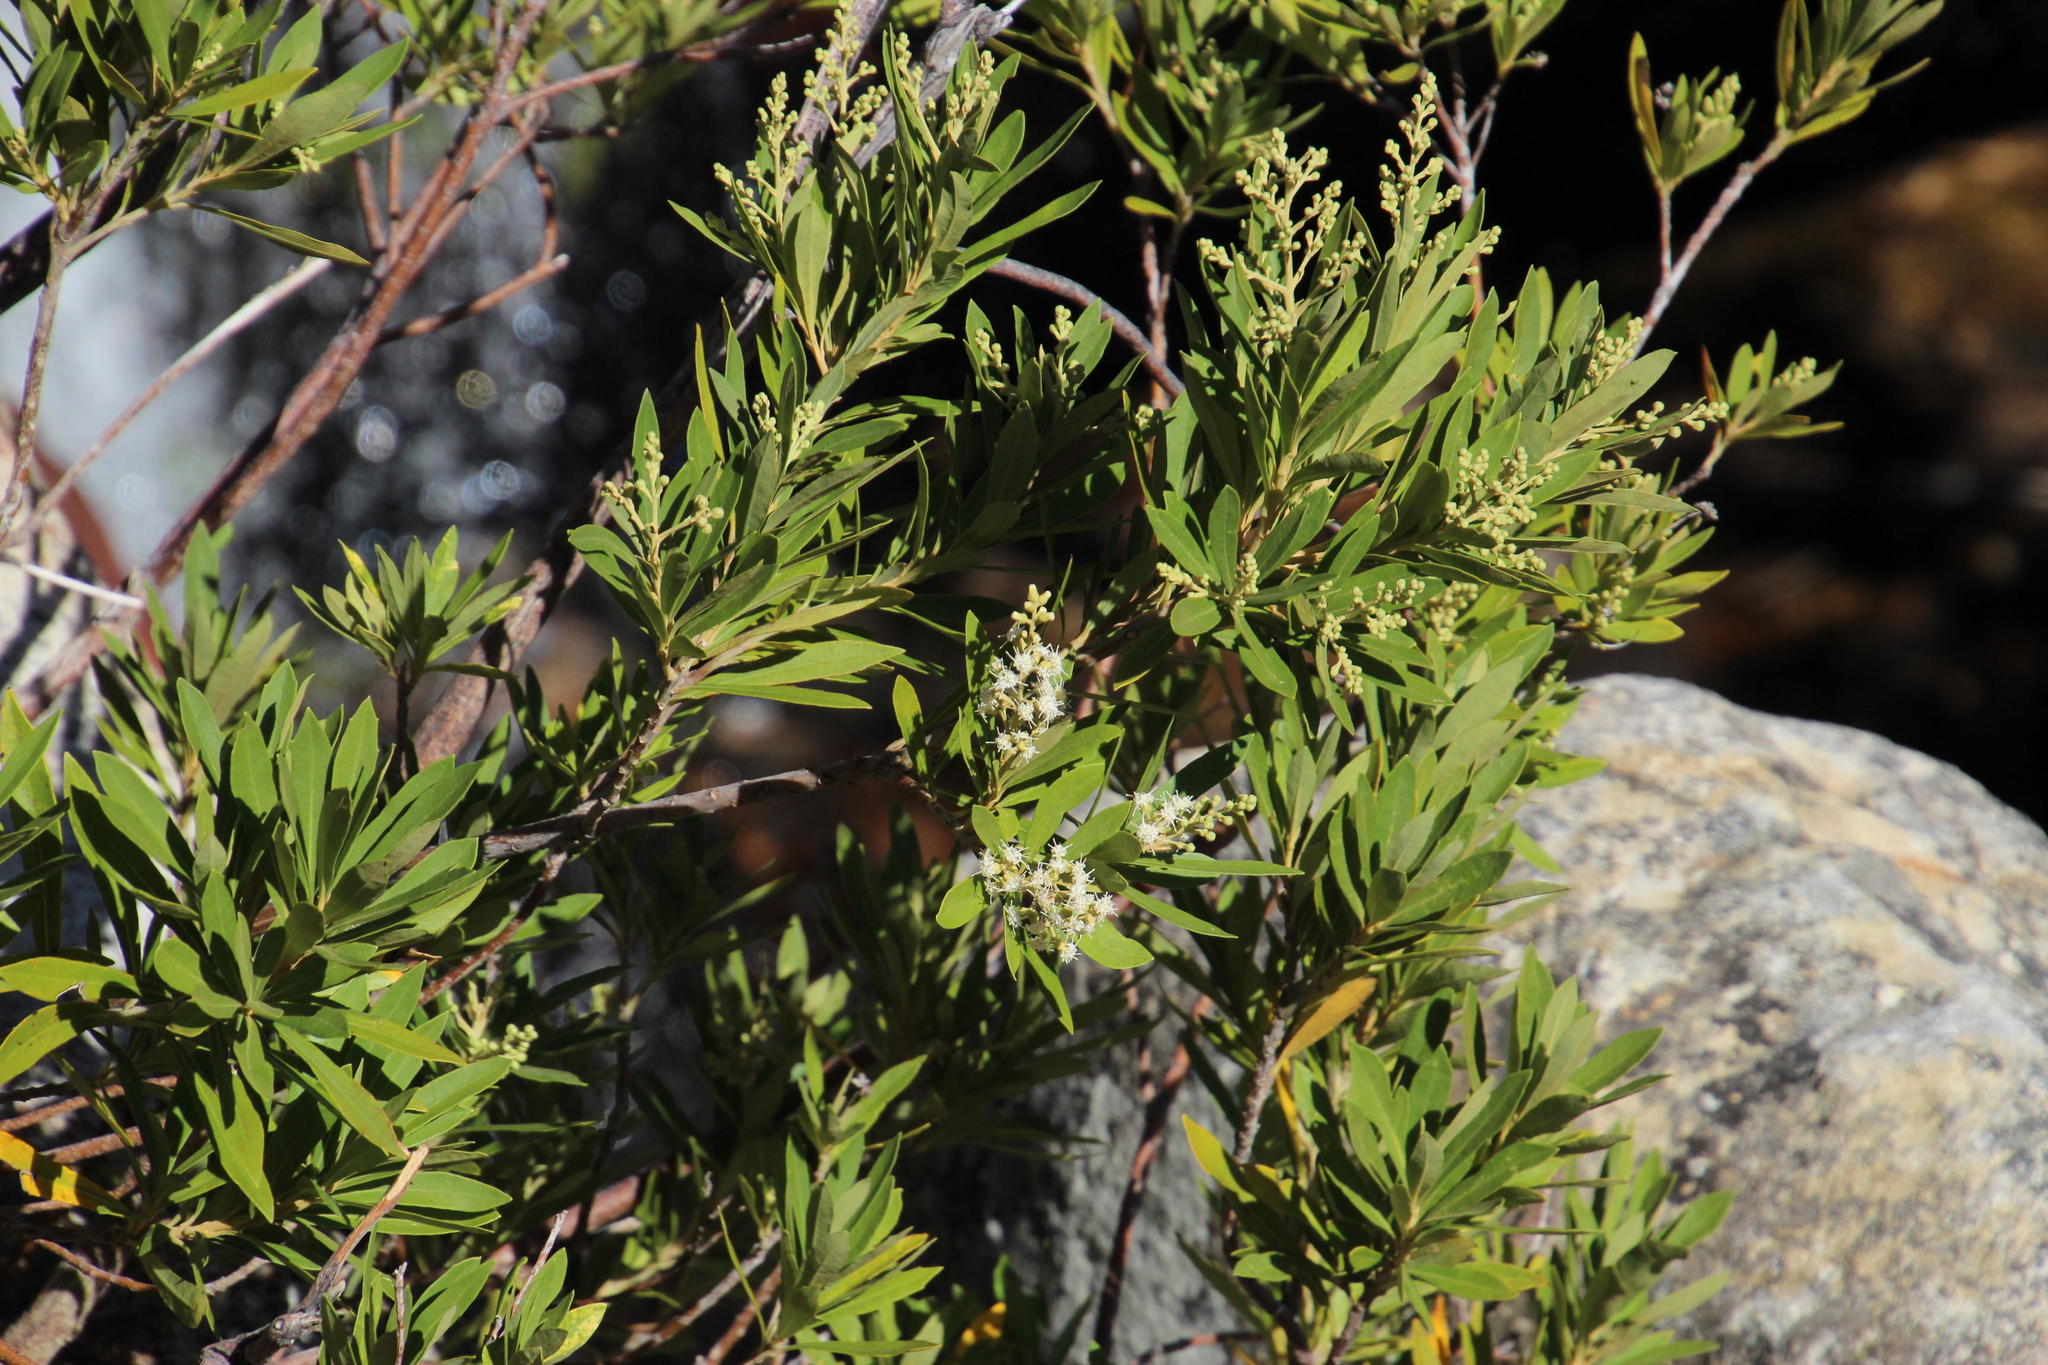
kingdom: Plantae
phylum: Tracheophyta
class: Magnoliopsida
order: Asterales
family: Asteraceae
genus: Brachylaena
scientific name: Brachylaena neriifolia
